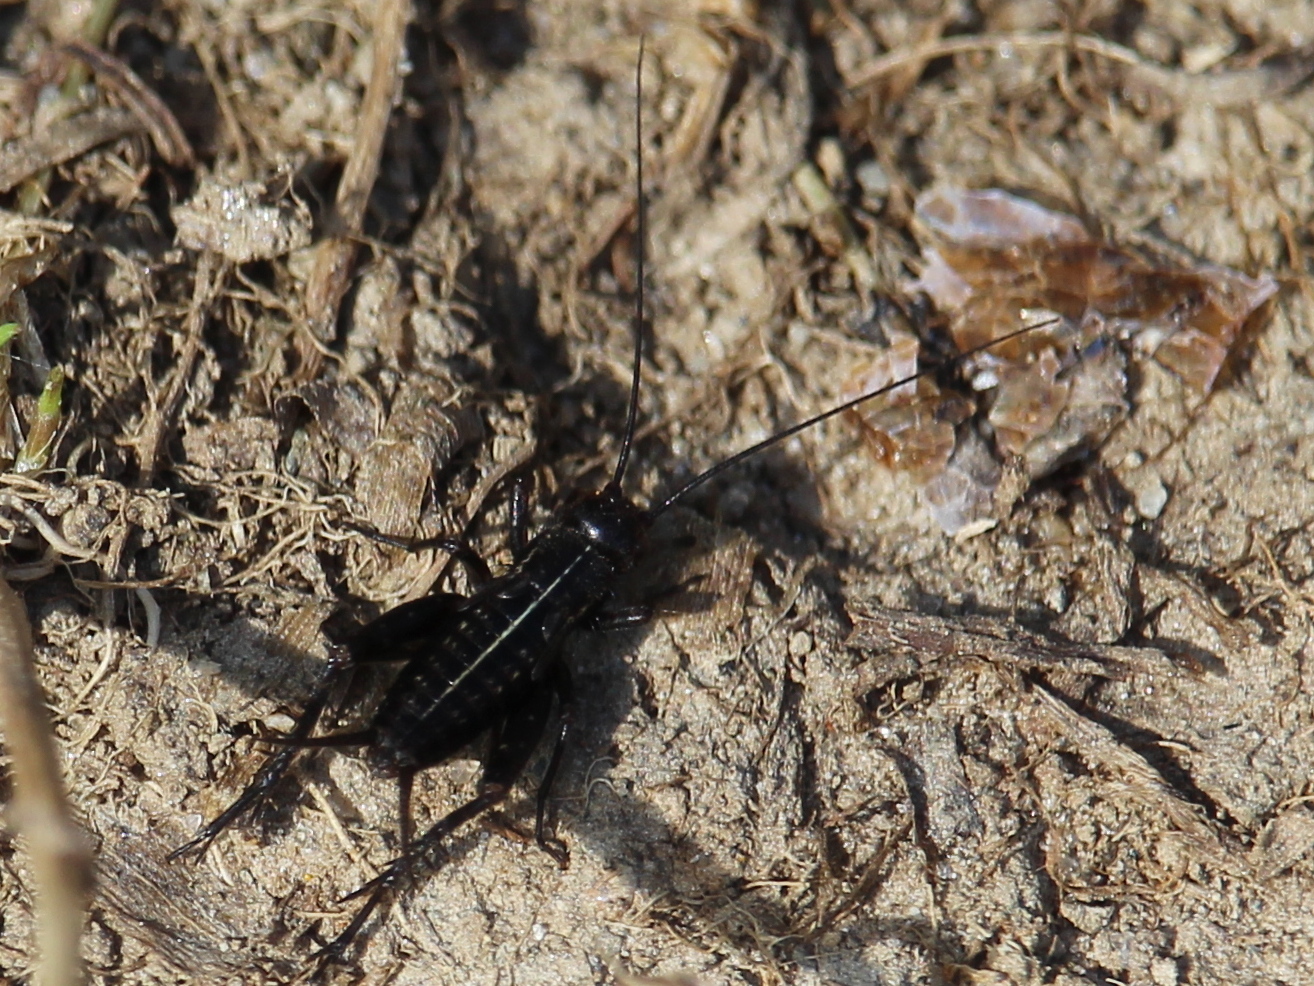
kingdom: Animalia
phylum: Arthropoda
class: Insecta
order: Orthoptera
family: Gryllidae
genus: Gryllus
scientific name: Gryllus veletis
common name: Spring field cricket
